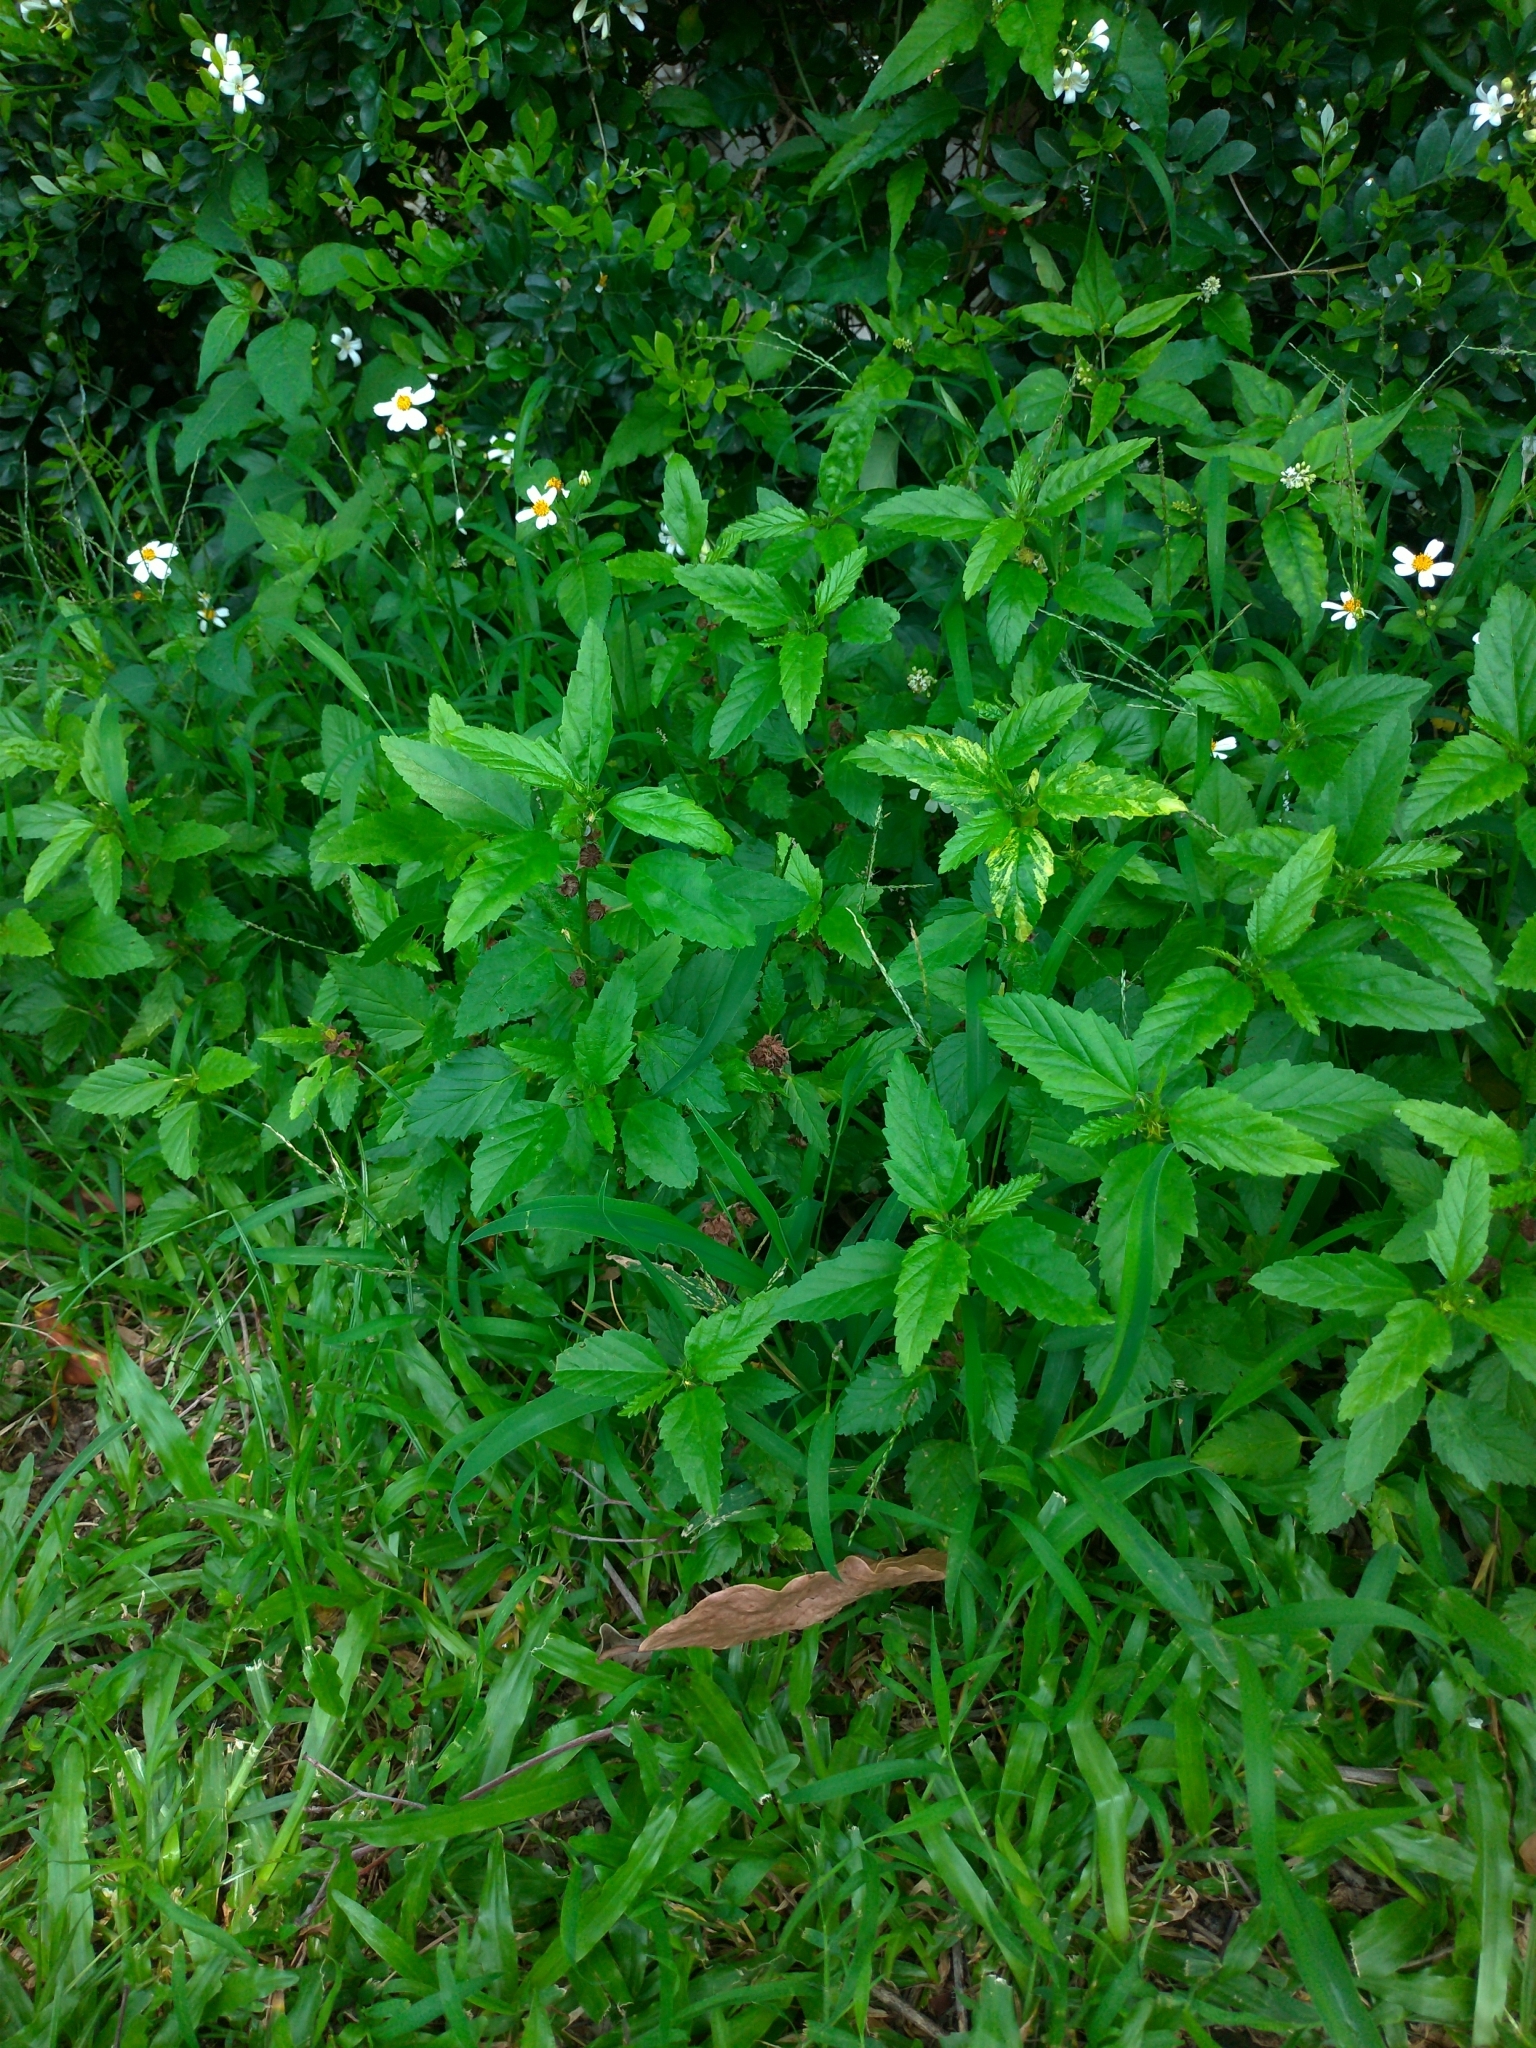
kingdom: Plantae
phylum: Tracheophyta
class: Magnoliopsida
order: Malvales
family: Malvaceae
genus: Malvastrum
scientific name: Malvastrum coromandelianum
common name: Threelobe false mallow
